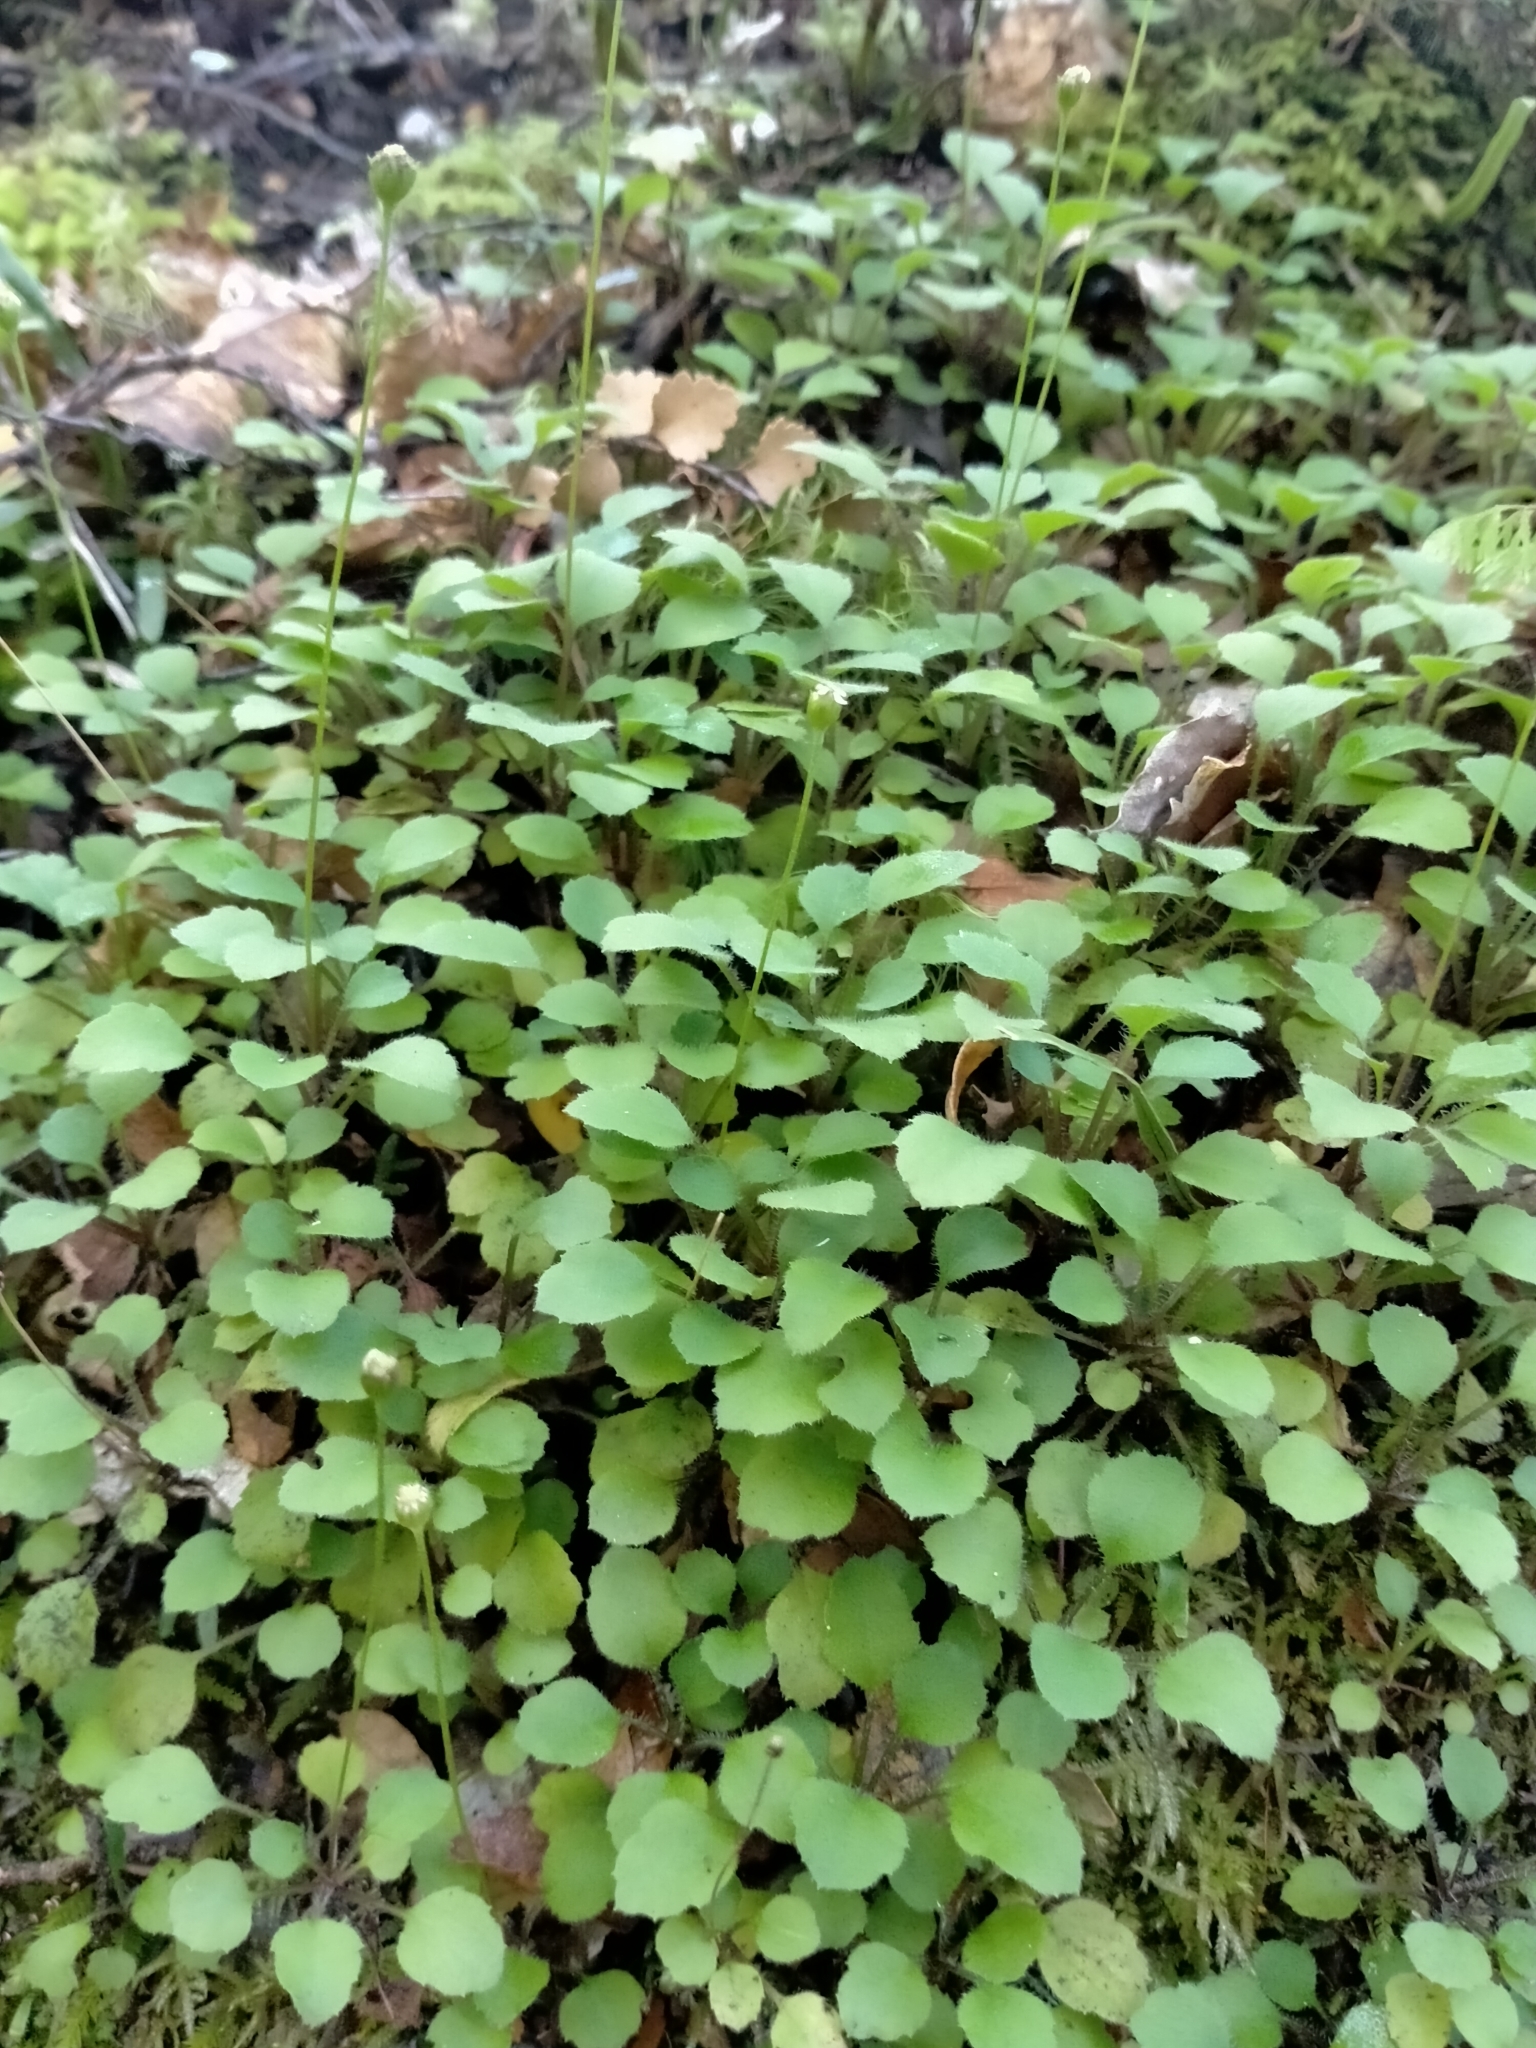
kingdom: Plantae
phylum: Tracheophyta
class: Magnoliopsida
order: Asterales
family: Asteraceae
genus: Lagenophora
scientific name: Lagenophora strangulata
